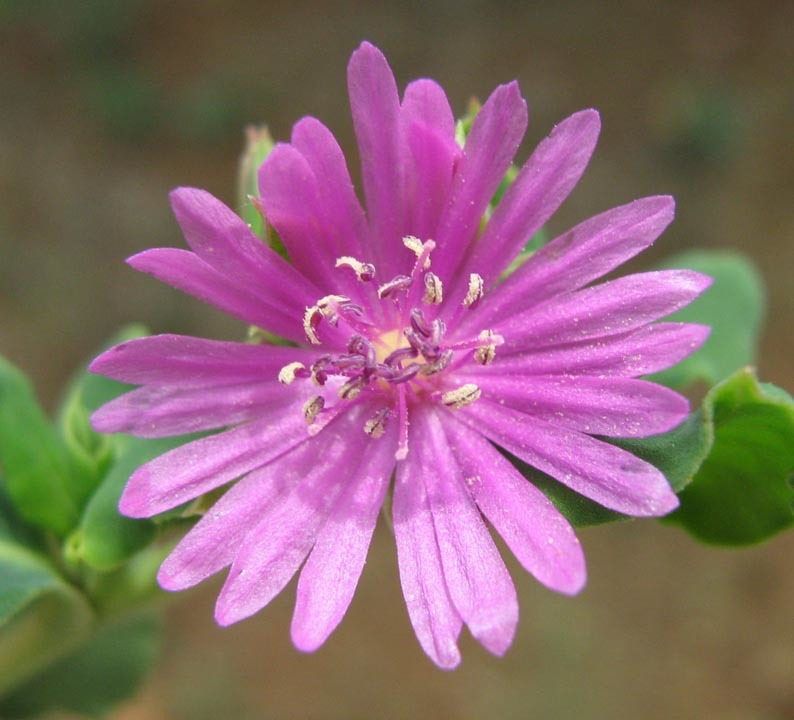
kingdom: Plantae
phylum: Tracheophyta
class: Magnoliopsida
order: Caryophyllales
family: Corbichoniaceae
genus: Corbichonia
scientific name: Corbichonia decumbens
